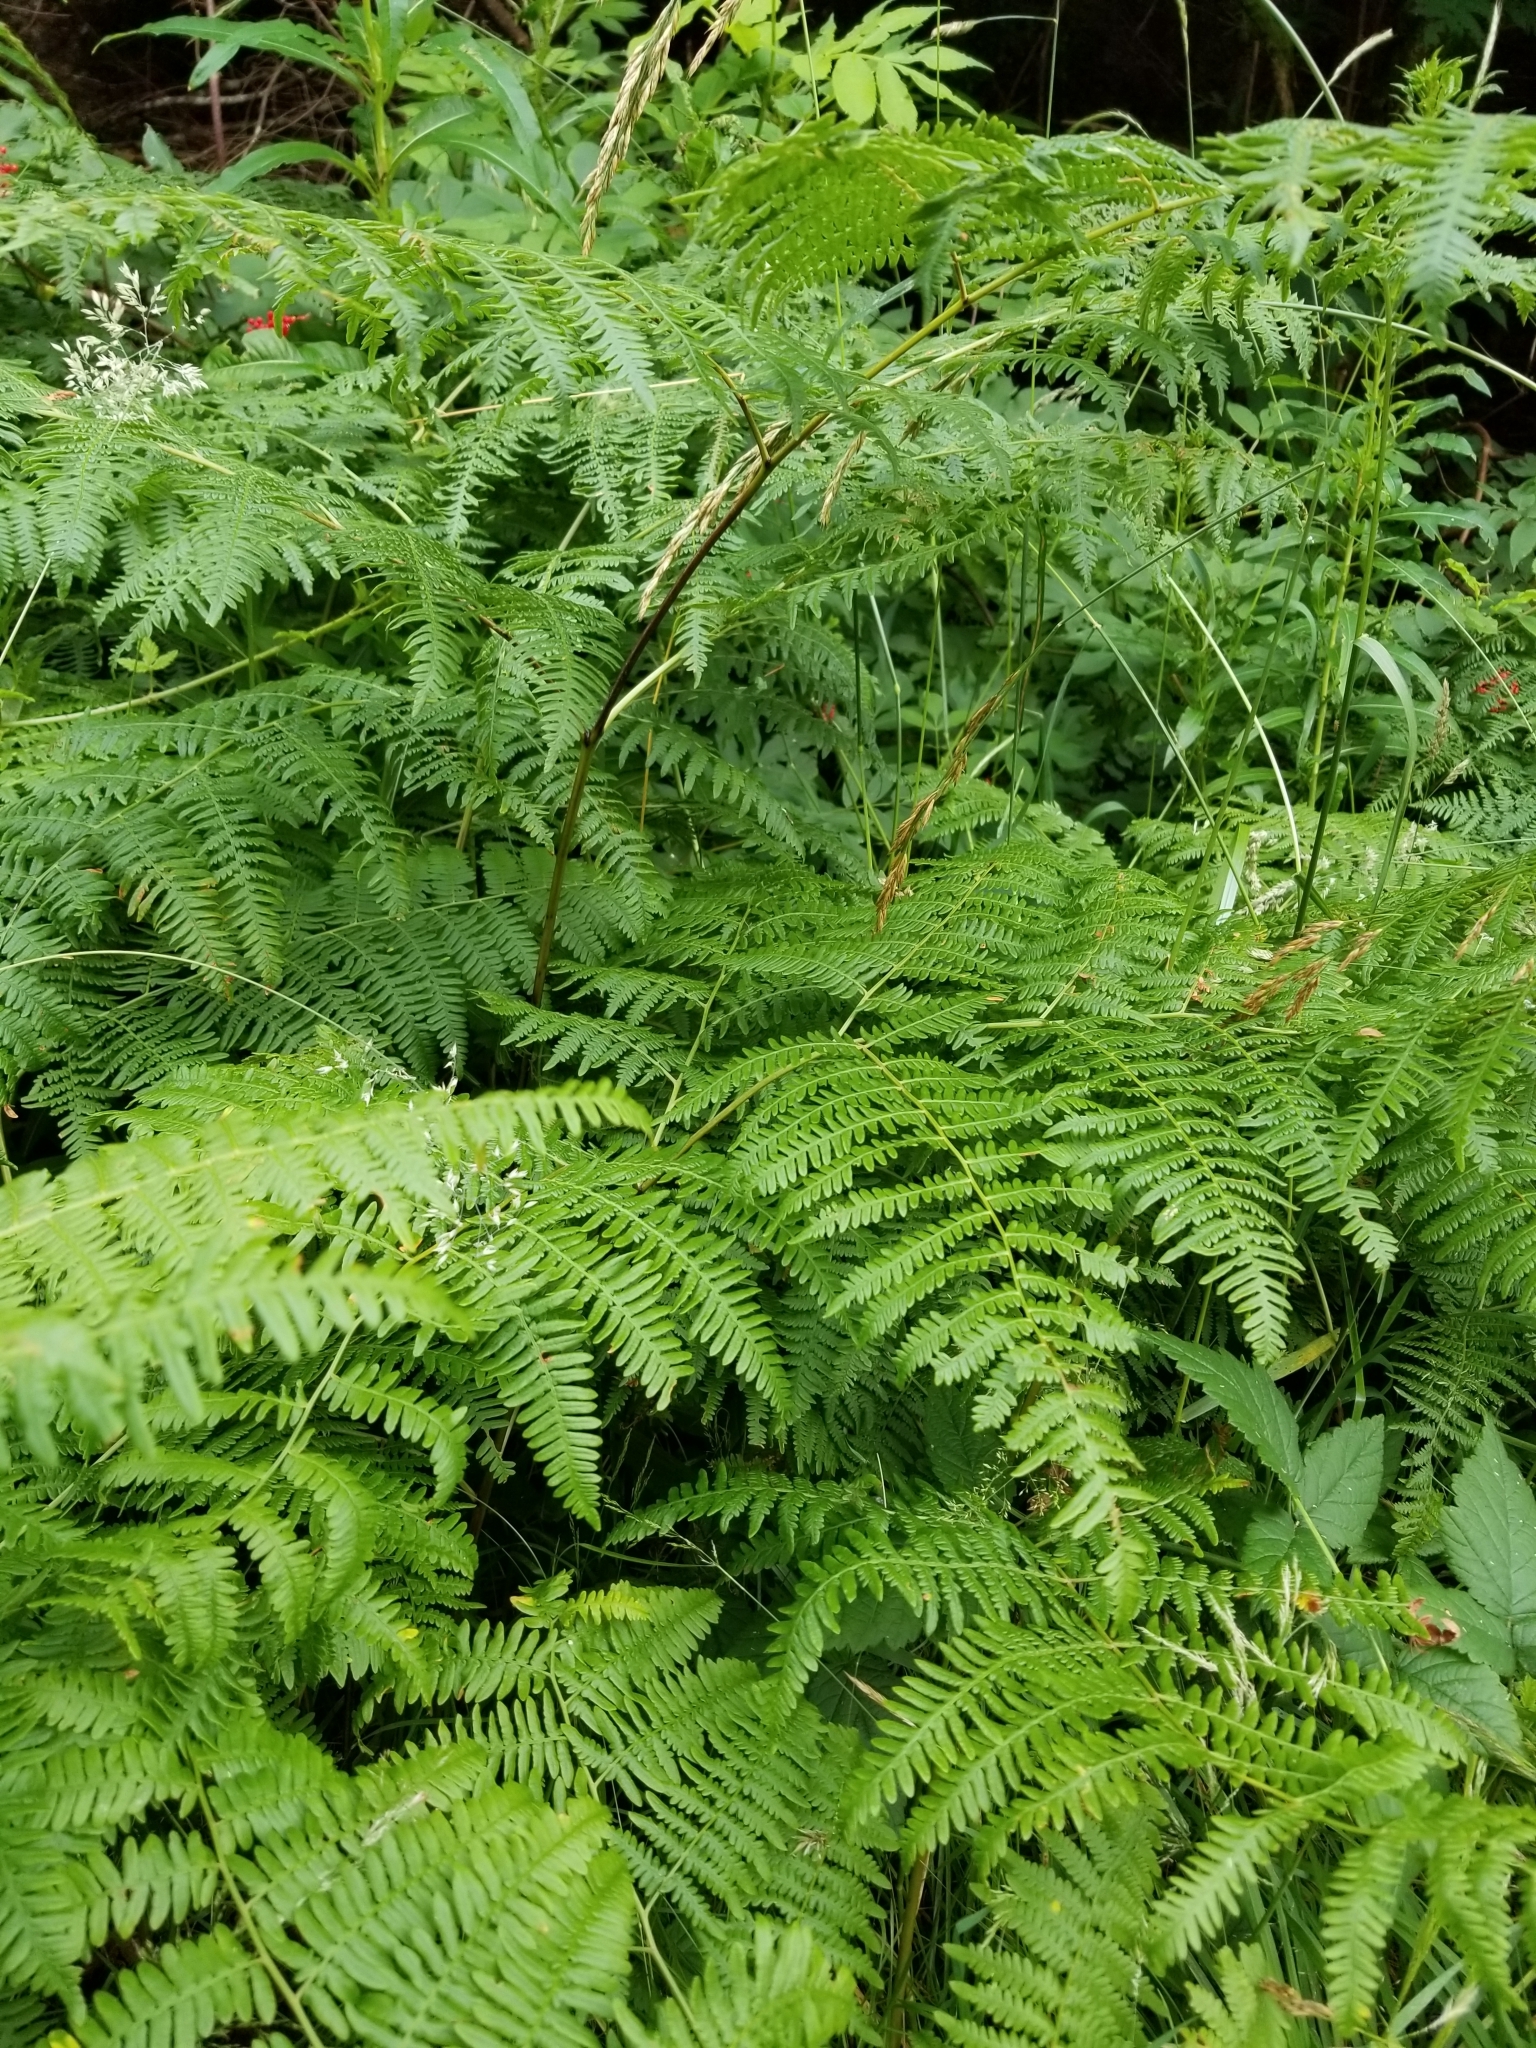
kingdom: Plantae
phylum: Tracheophyta
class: Polypodiopsida
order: Polypodiales
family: Dennstaedtiaceae
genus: Pteridium
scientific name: Pteridium aquilinum
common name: Bracken
